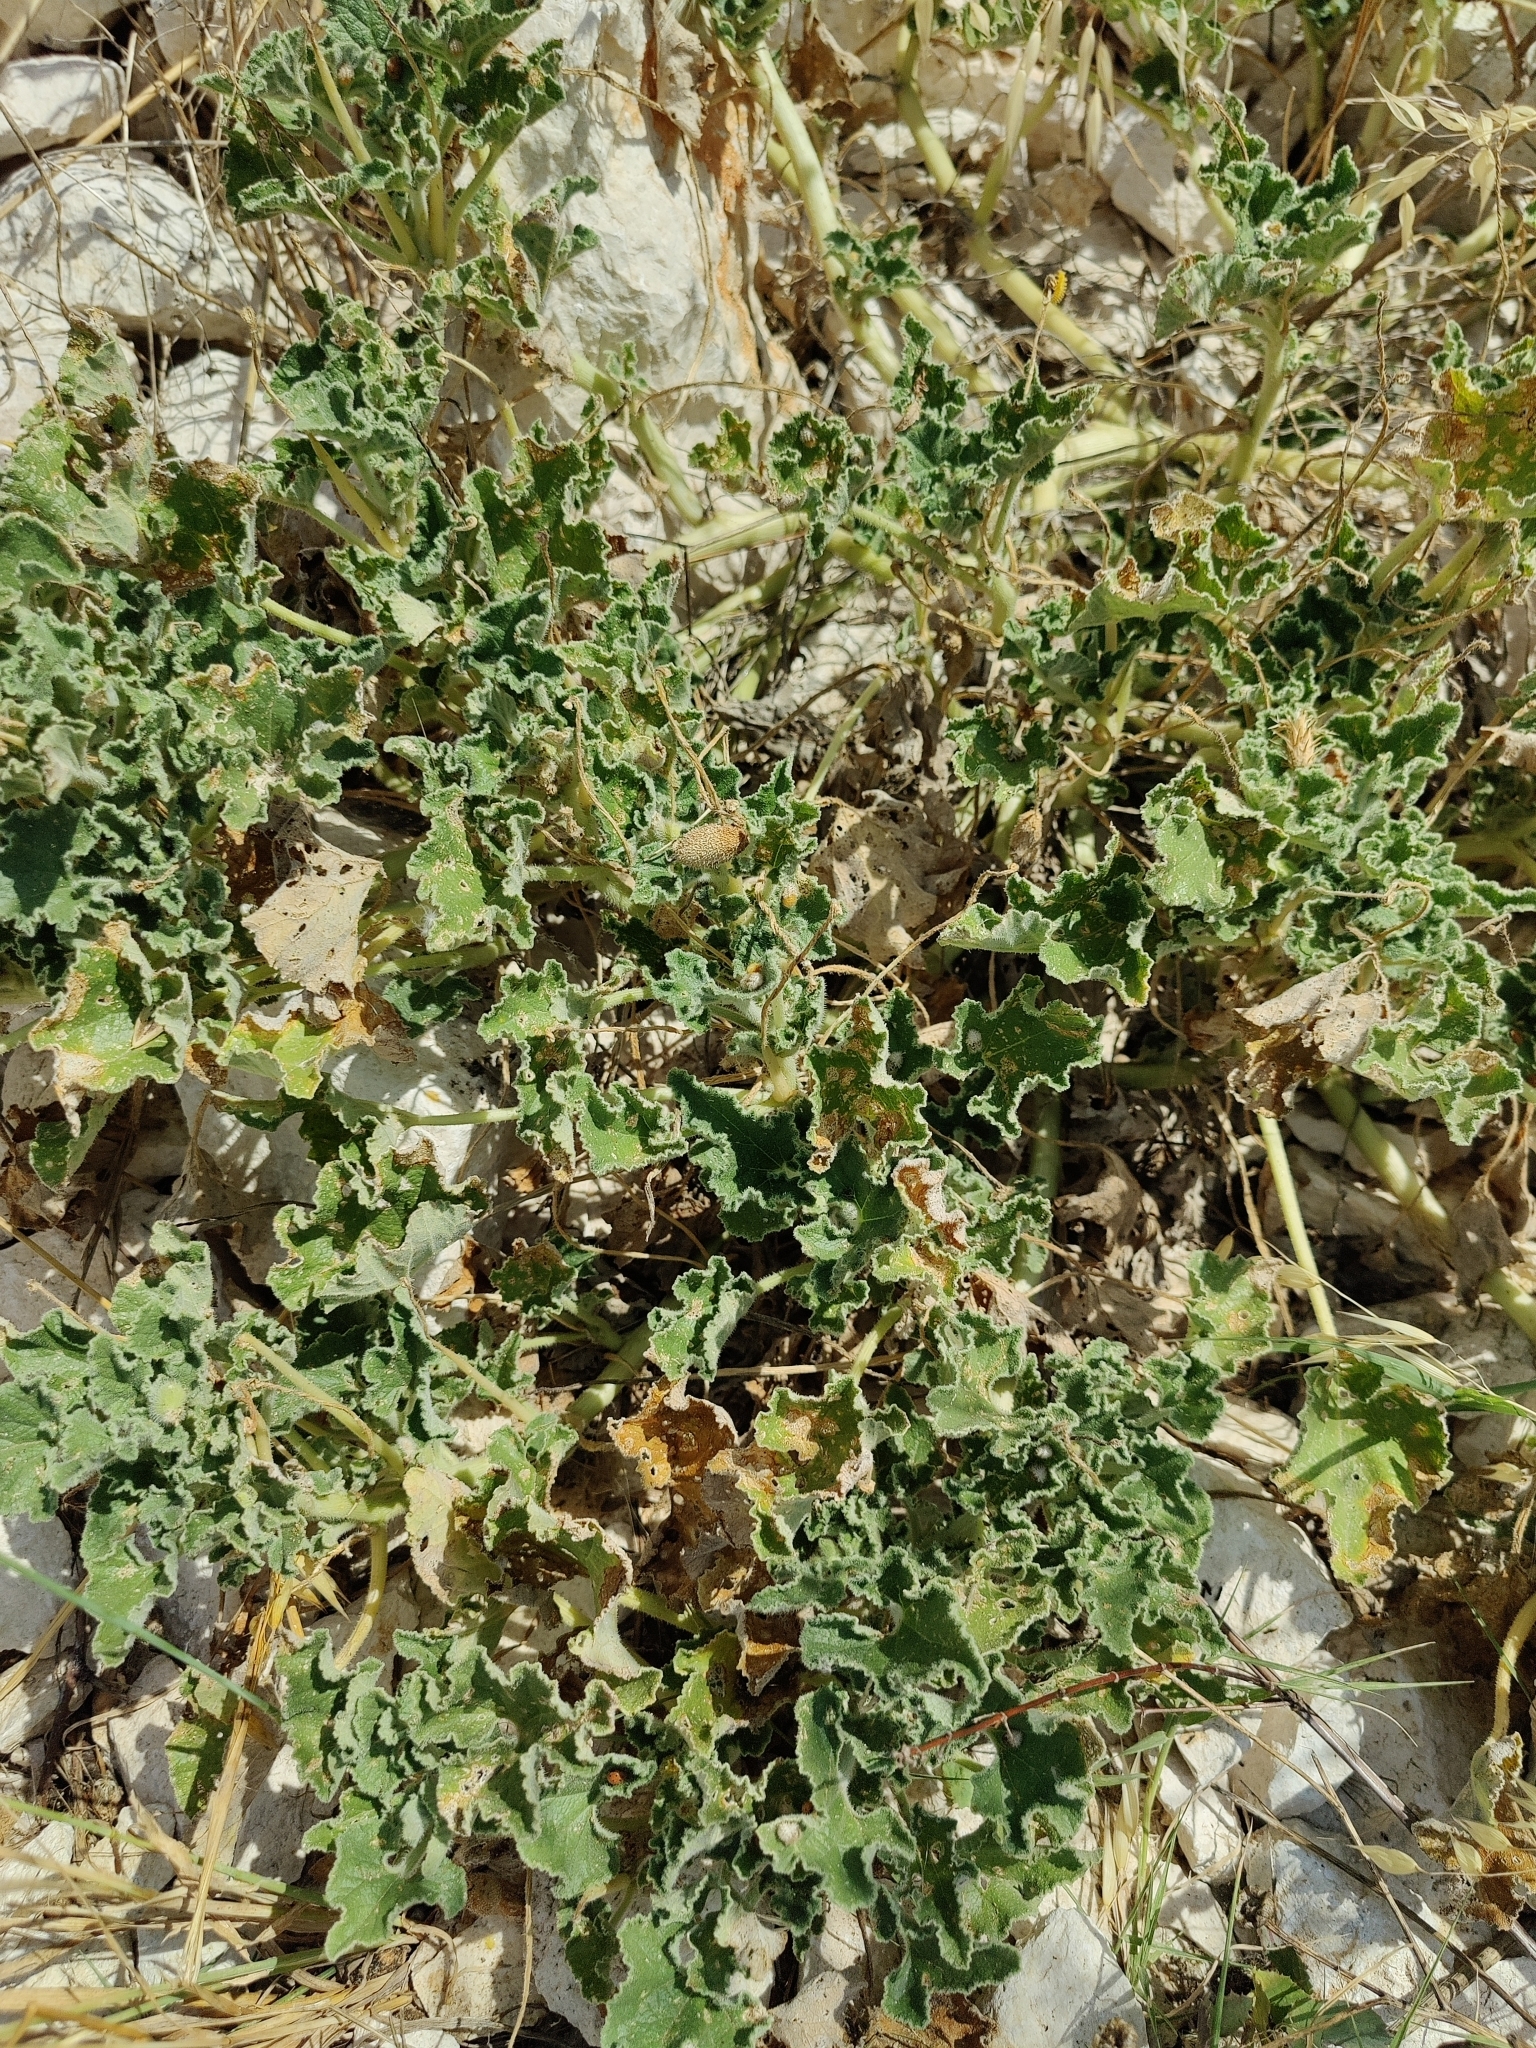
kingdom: Plantae
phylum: Tracheophyta
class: Magnoliopsida
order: Cucurbitales
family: Cucurbitaceae
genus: Ecballium
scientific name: Ecballium elaterium
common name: Squirting cucumber
